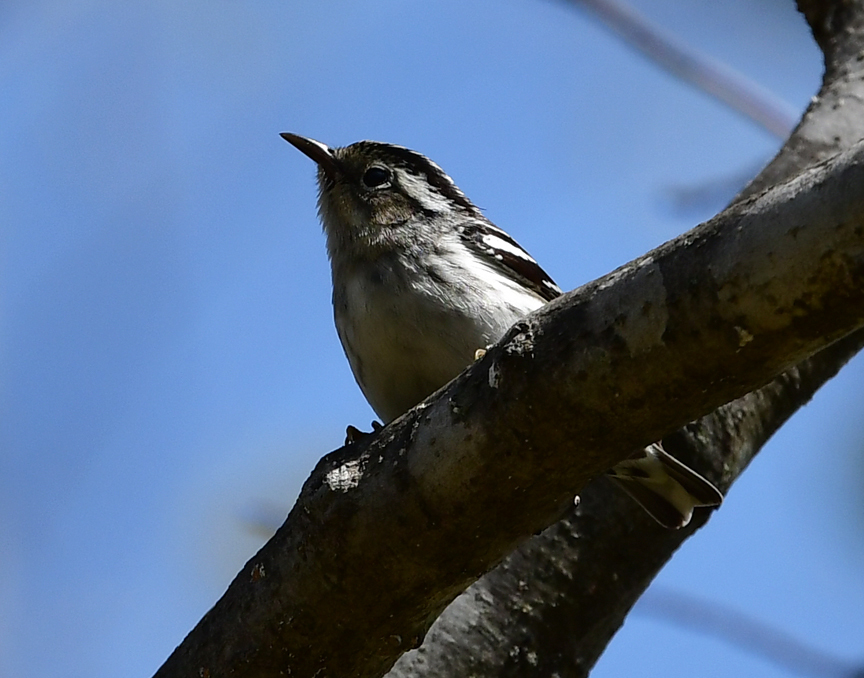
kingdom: Animalia
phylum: Chordata
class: Aves
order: Passeriformes
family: Parulidae
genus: Mniotilta
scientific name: Mniotilta varia
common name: Black-and-white warbler
